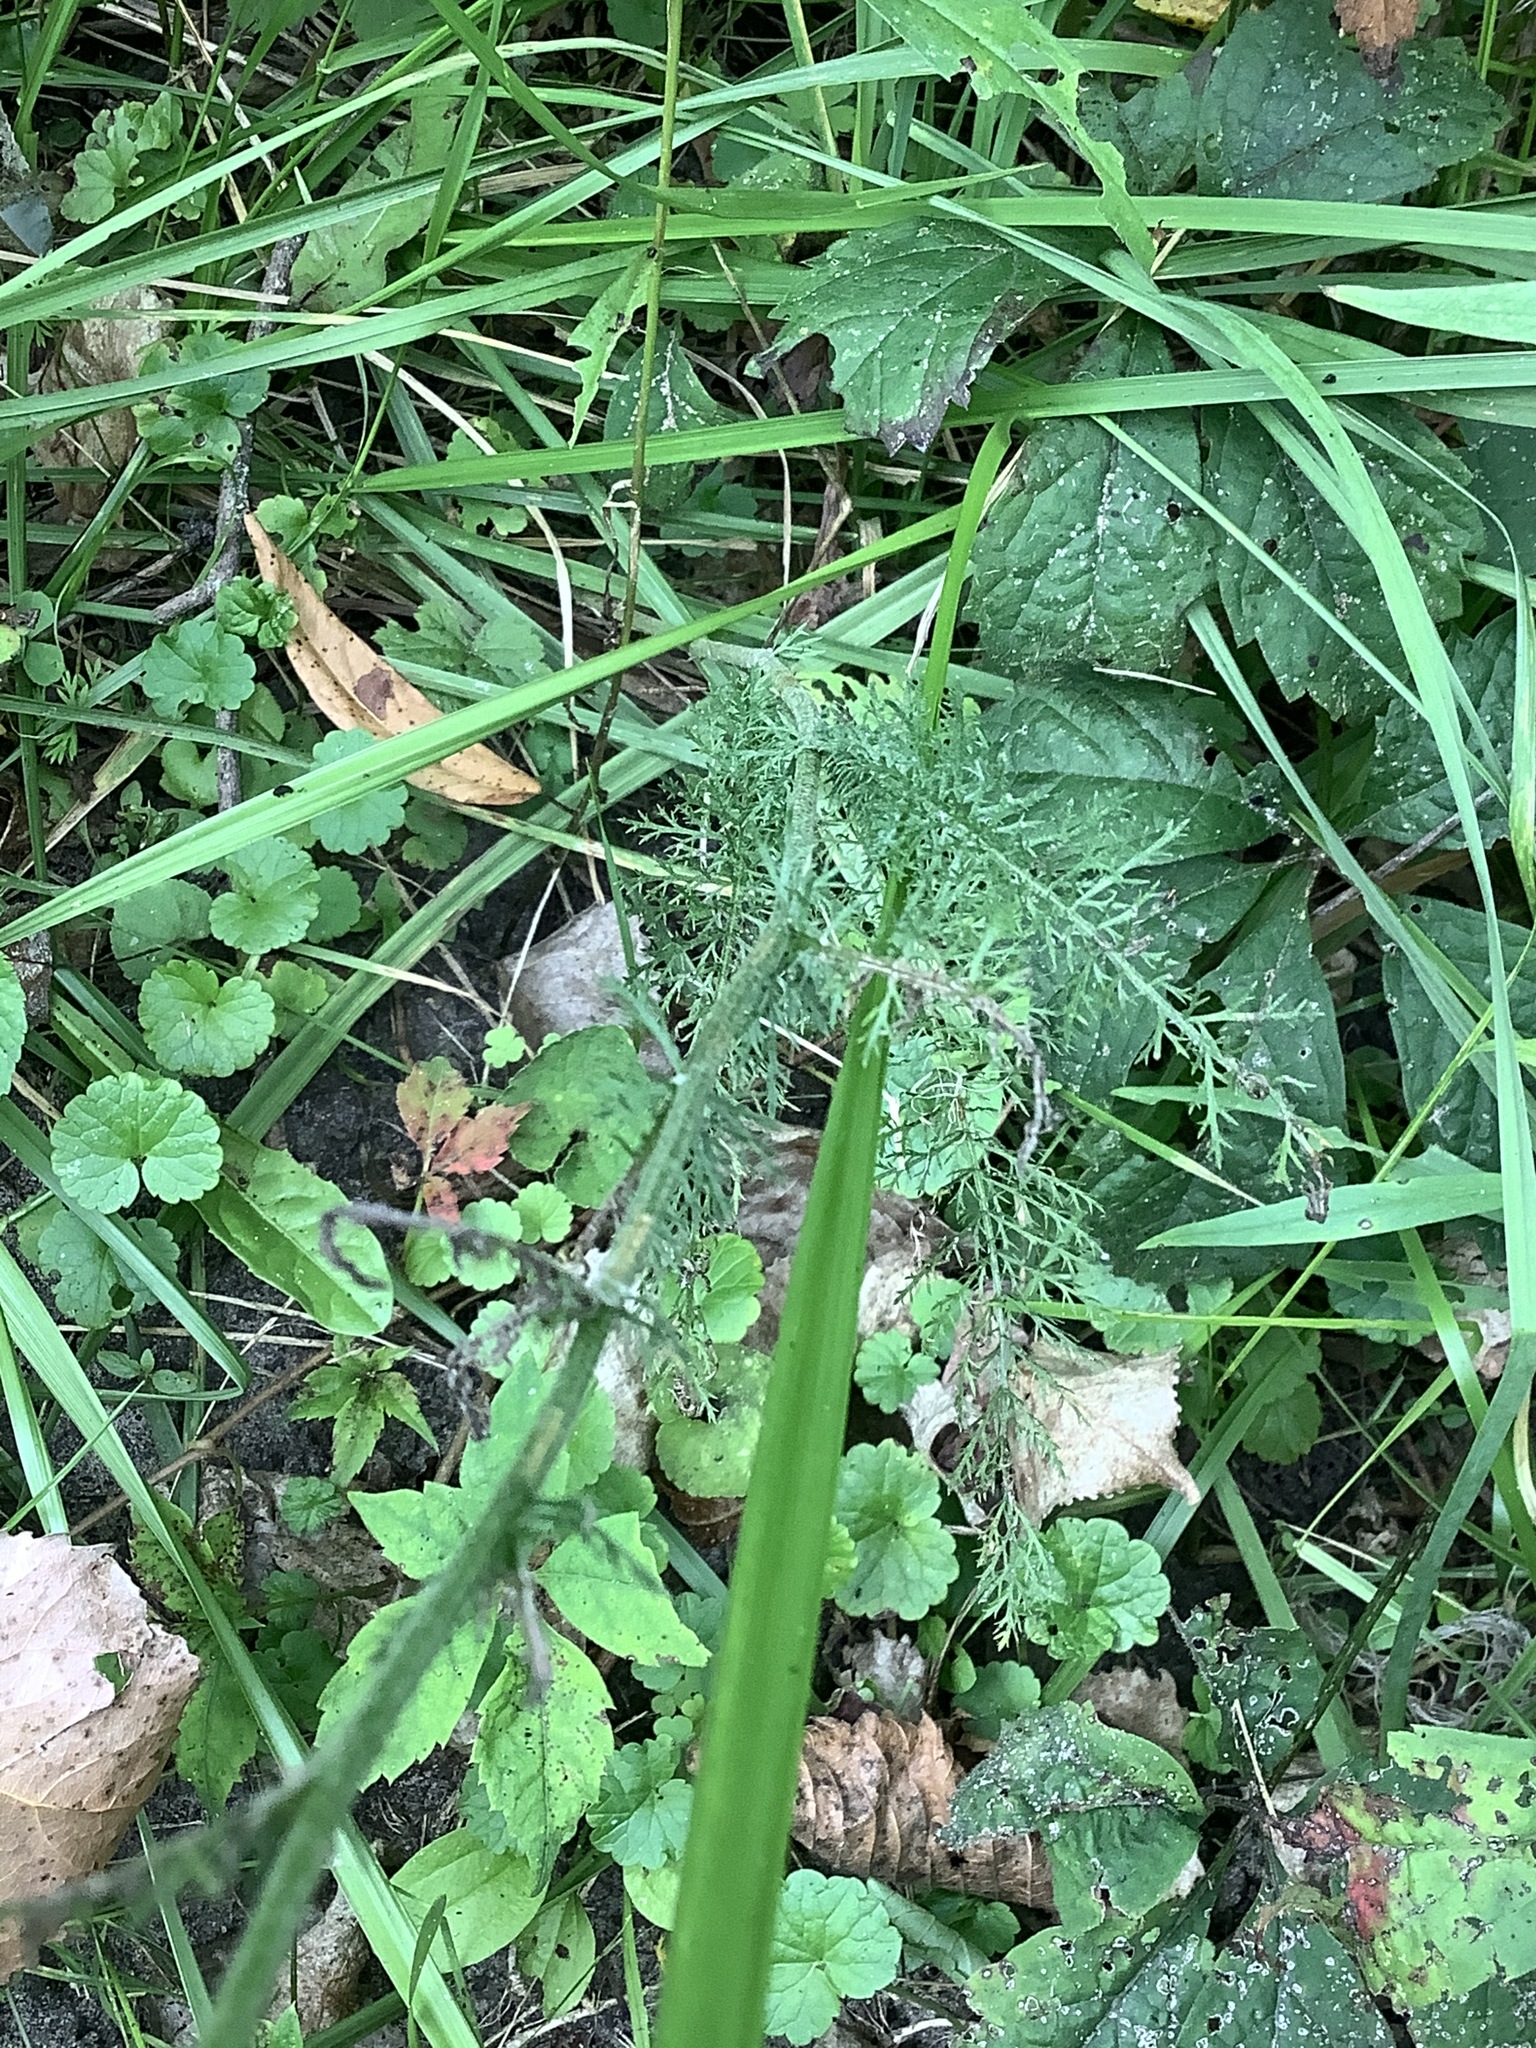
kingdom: Plantae
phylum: Tracheophyta
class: Magnoliopsida
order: Asterales
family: Asteraceae
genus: Achillea
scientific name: Achillea millefolium
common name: Yarrow
